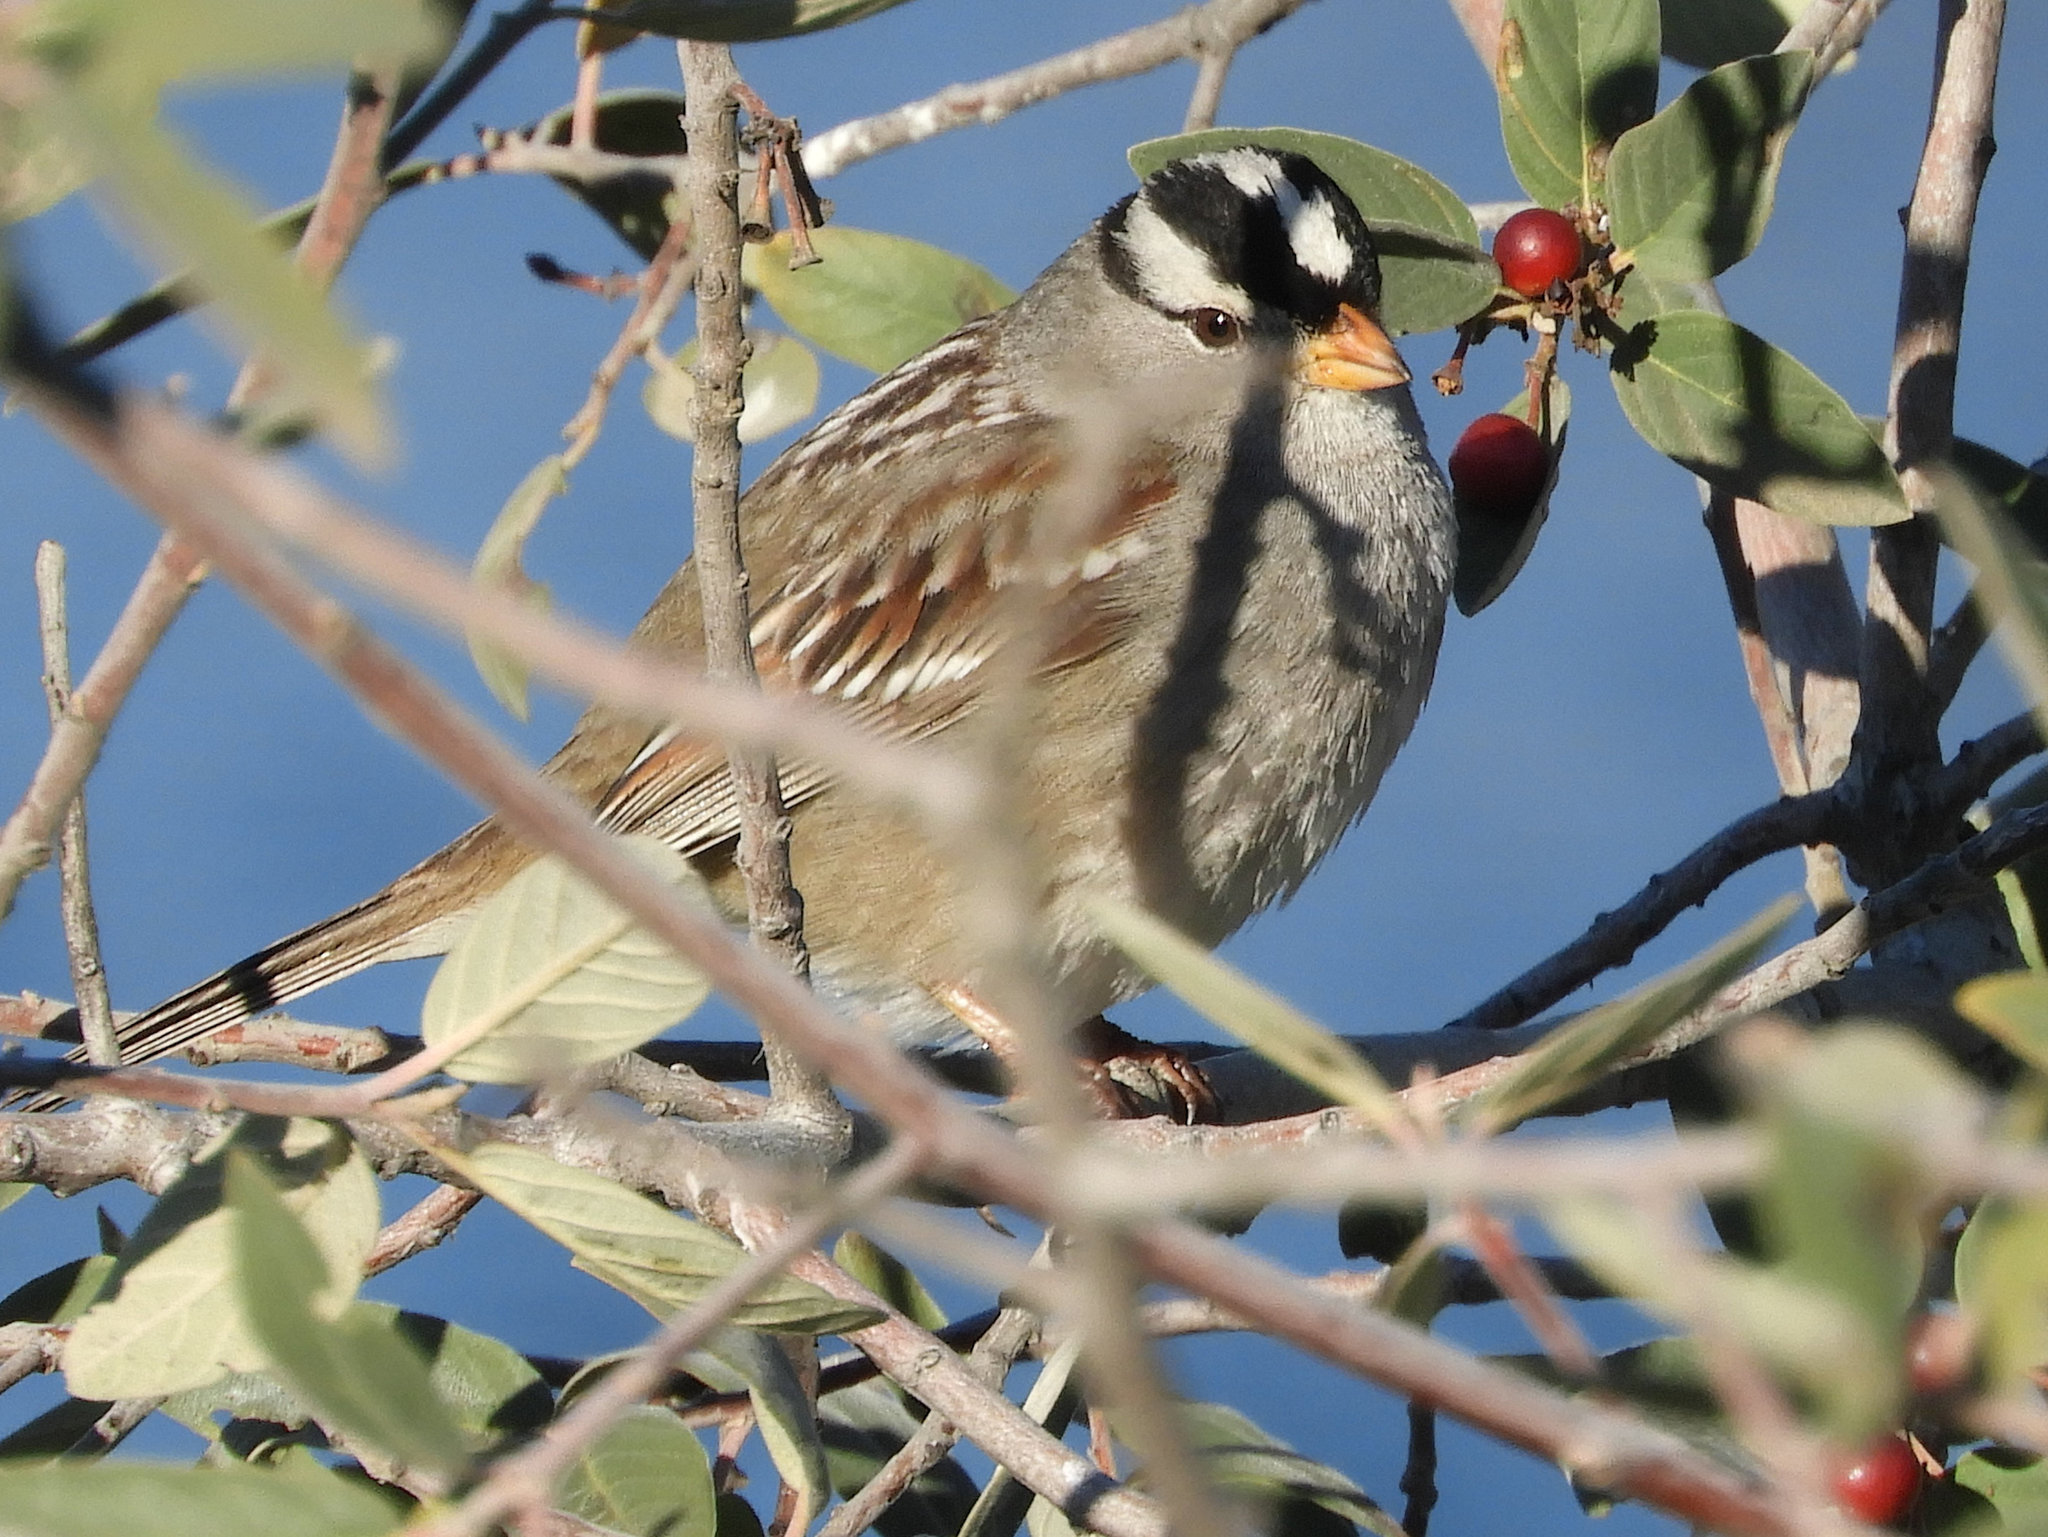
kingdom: Animalia
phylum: Chordata
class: Aves
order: Passeriformes
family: Passerellidae
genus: Zonotrichia
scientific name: Zonotrichia leucophrys
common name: White-crowned sparrow
